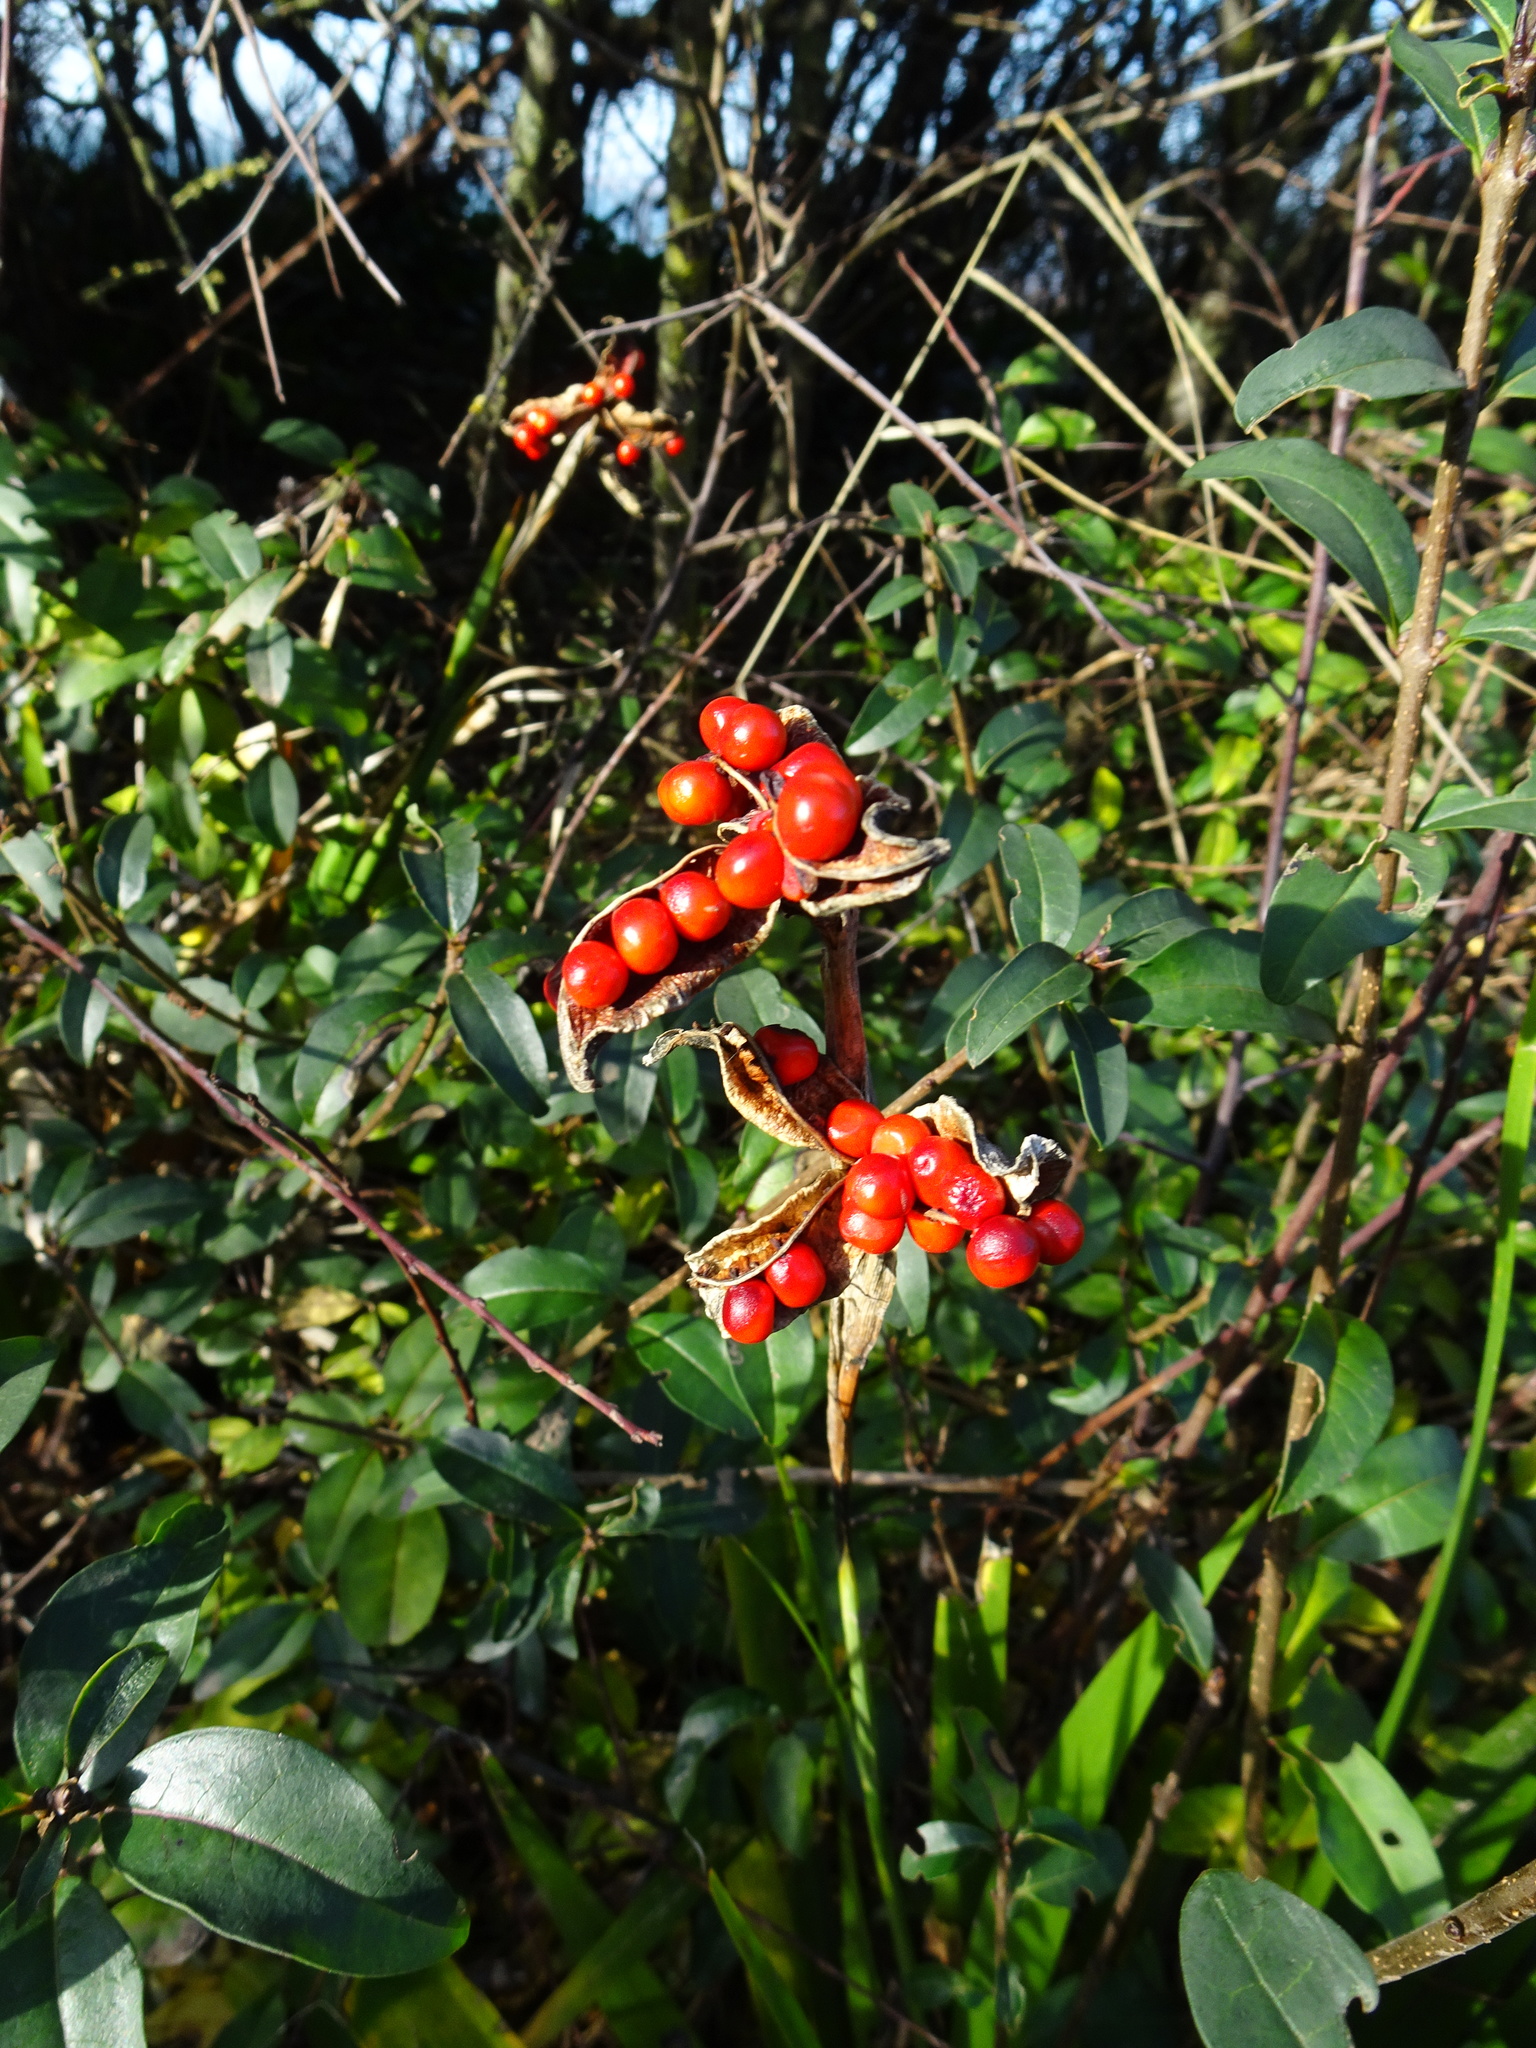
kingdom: Plantae
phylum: Tracheophyta
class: Liliopsida
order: Asparagales
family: Iridaceae
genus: Iris
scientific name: Iris foetidissima
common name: Stinking iris
